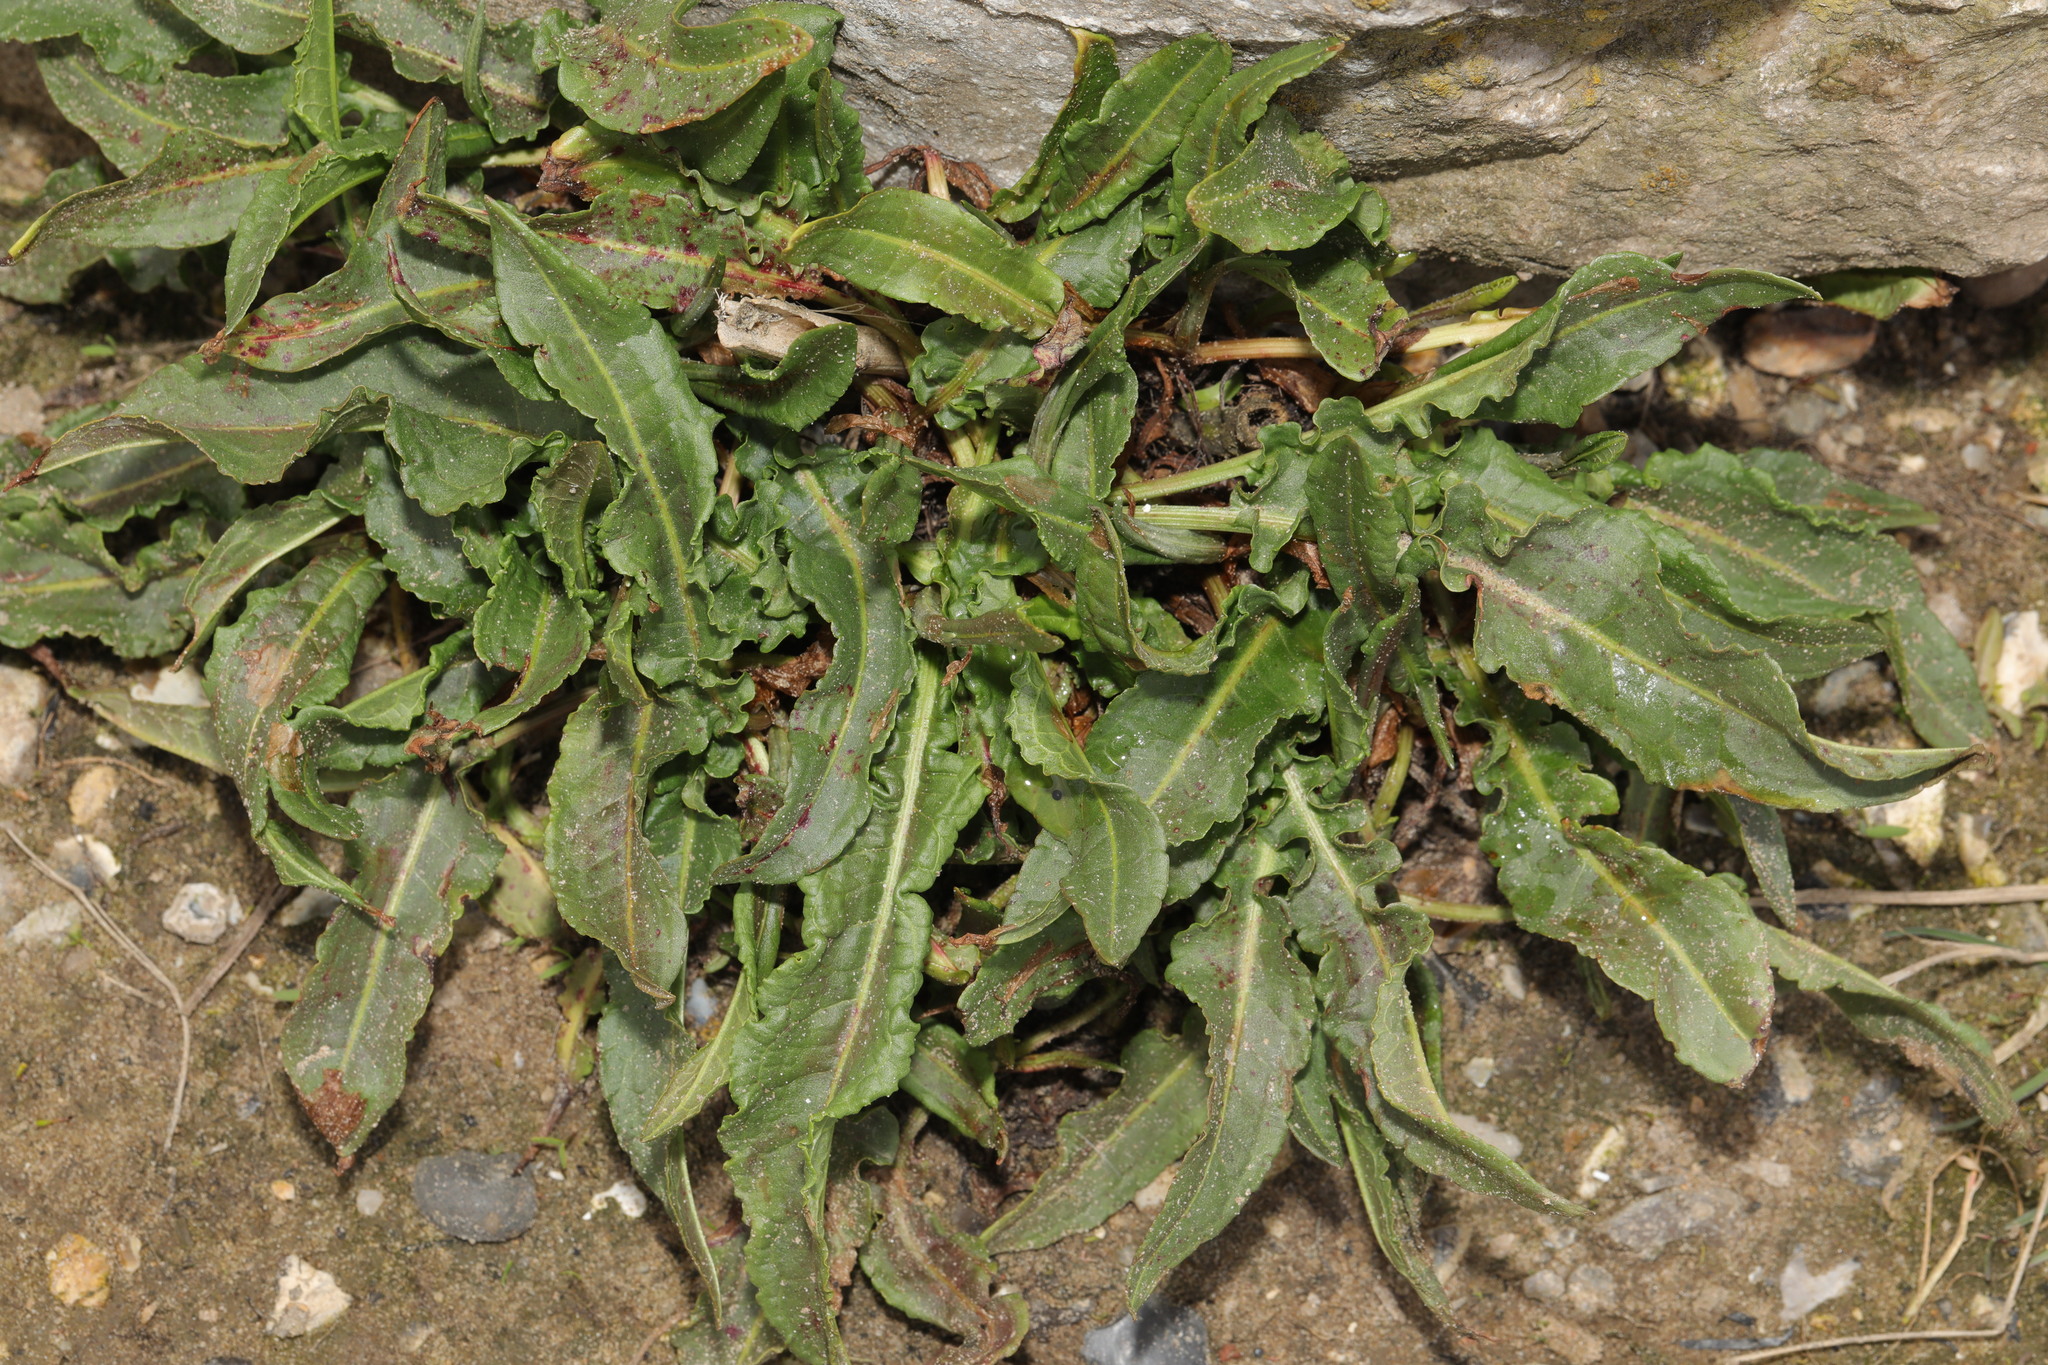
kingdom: Plantae
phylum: Tracheophyta
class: Magnoliopsida
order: Caryophyllales
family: Polygonaceae
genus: Rumex
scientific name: Rumex crispus
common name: Curled dock
